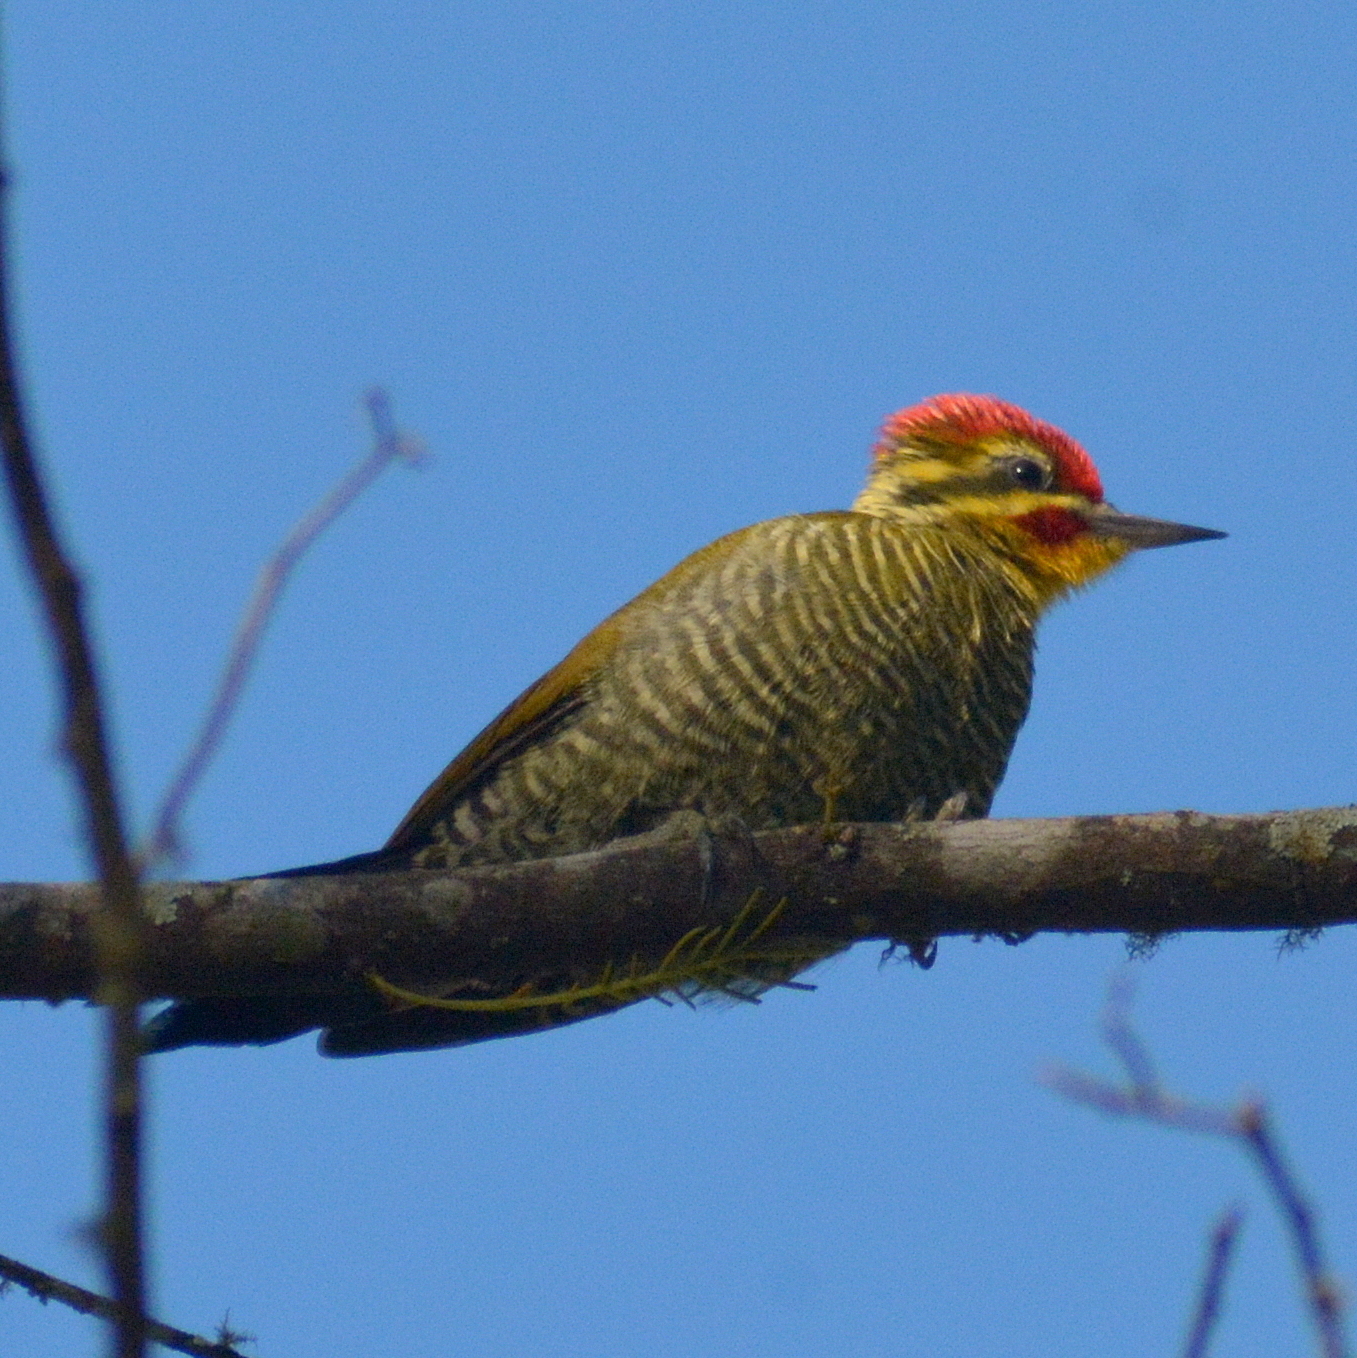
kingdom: Animalia
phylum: Chordata
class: Aves
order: Piciformes
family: Picidae
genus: Piculus
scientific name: Piculus aurulentus
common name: Yellow-browed woodpecker
